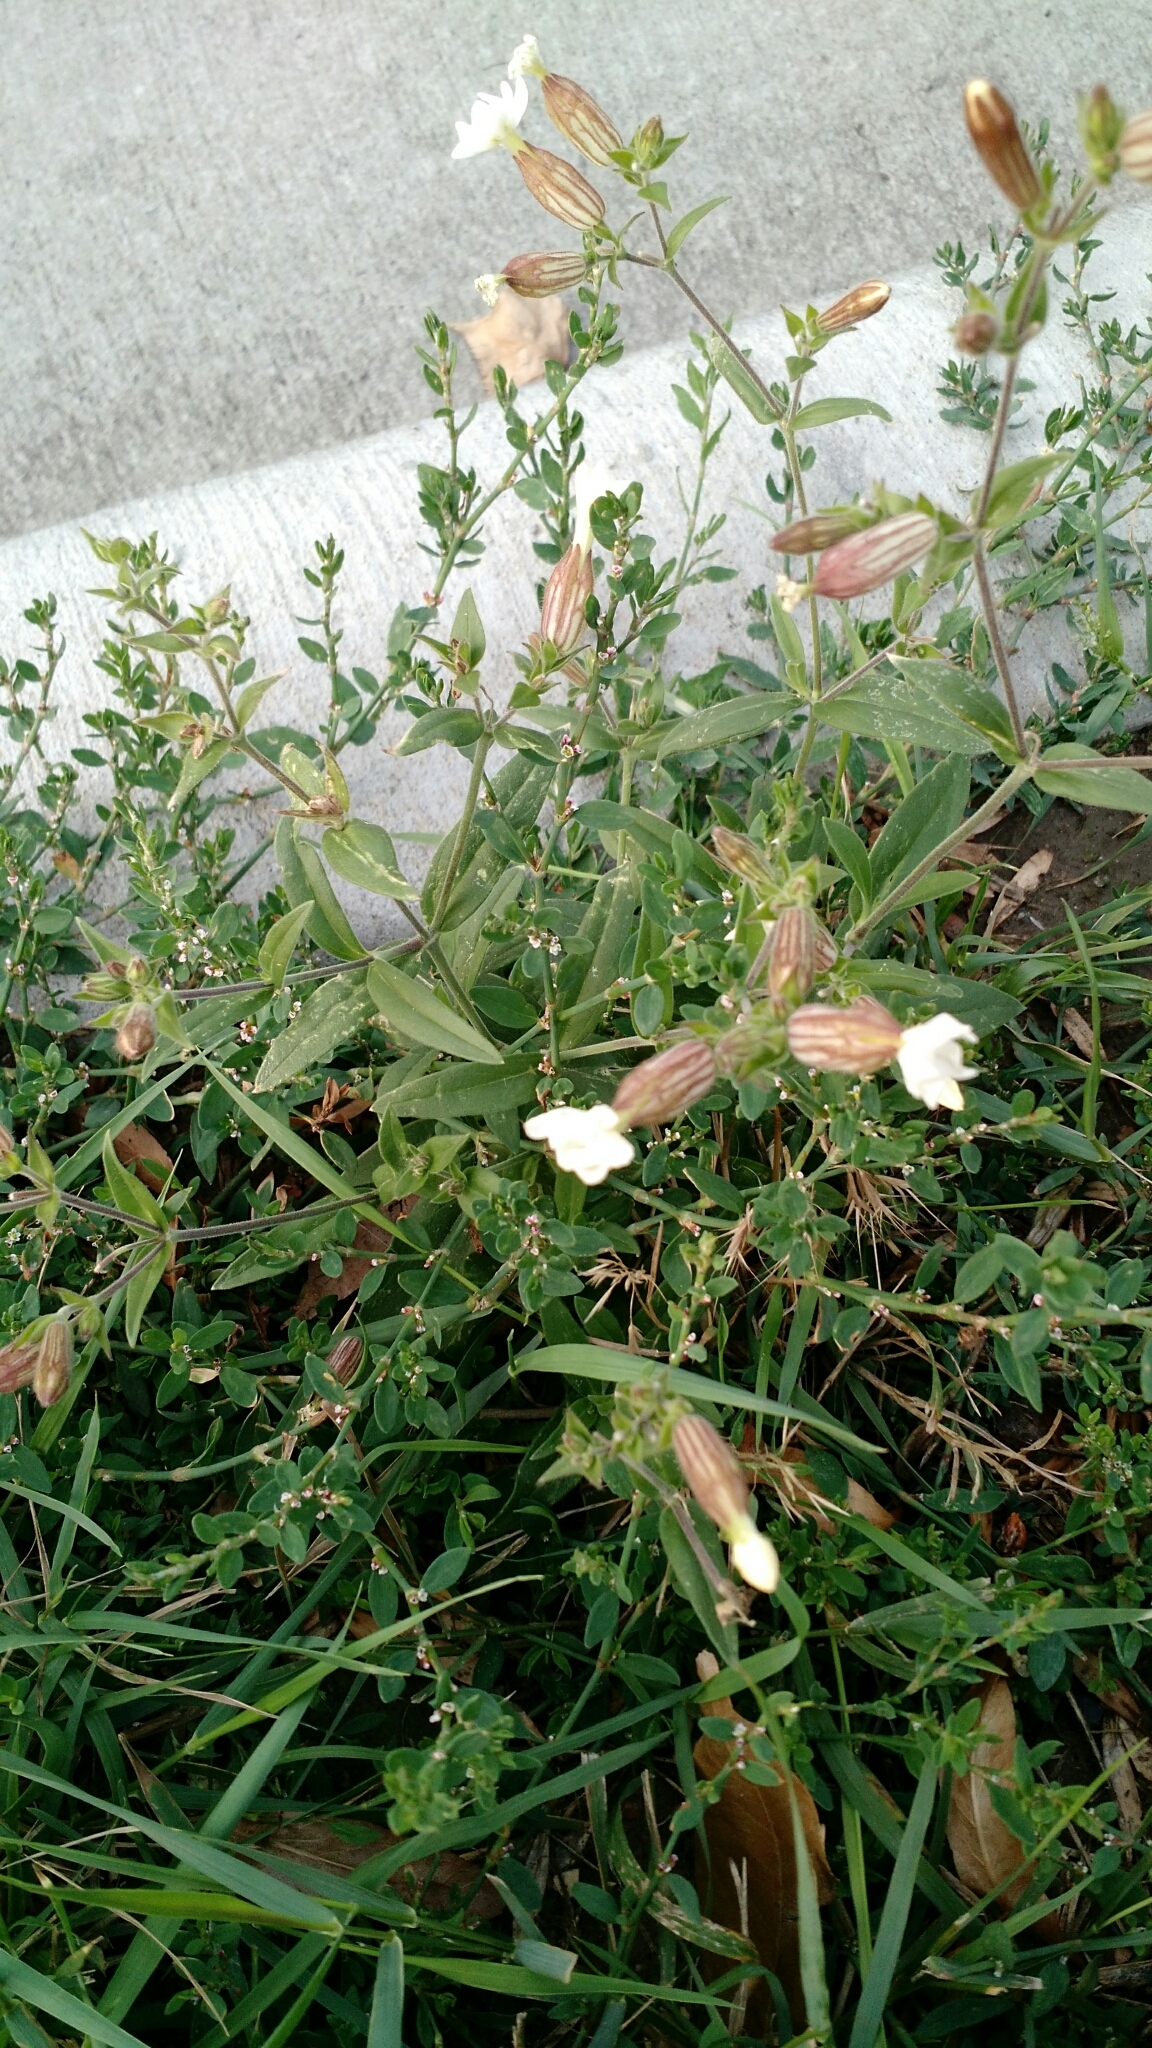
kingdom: Plantae
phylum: Tracheophyta
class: Magnoliopsida
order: Caryophyllales
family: Caryophyllaceae
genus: Silene
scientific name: Silene latifolia
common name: White campion
